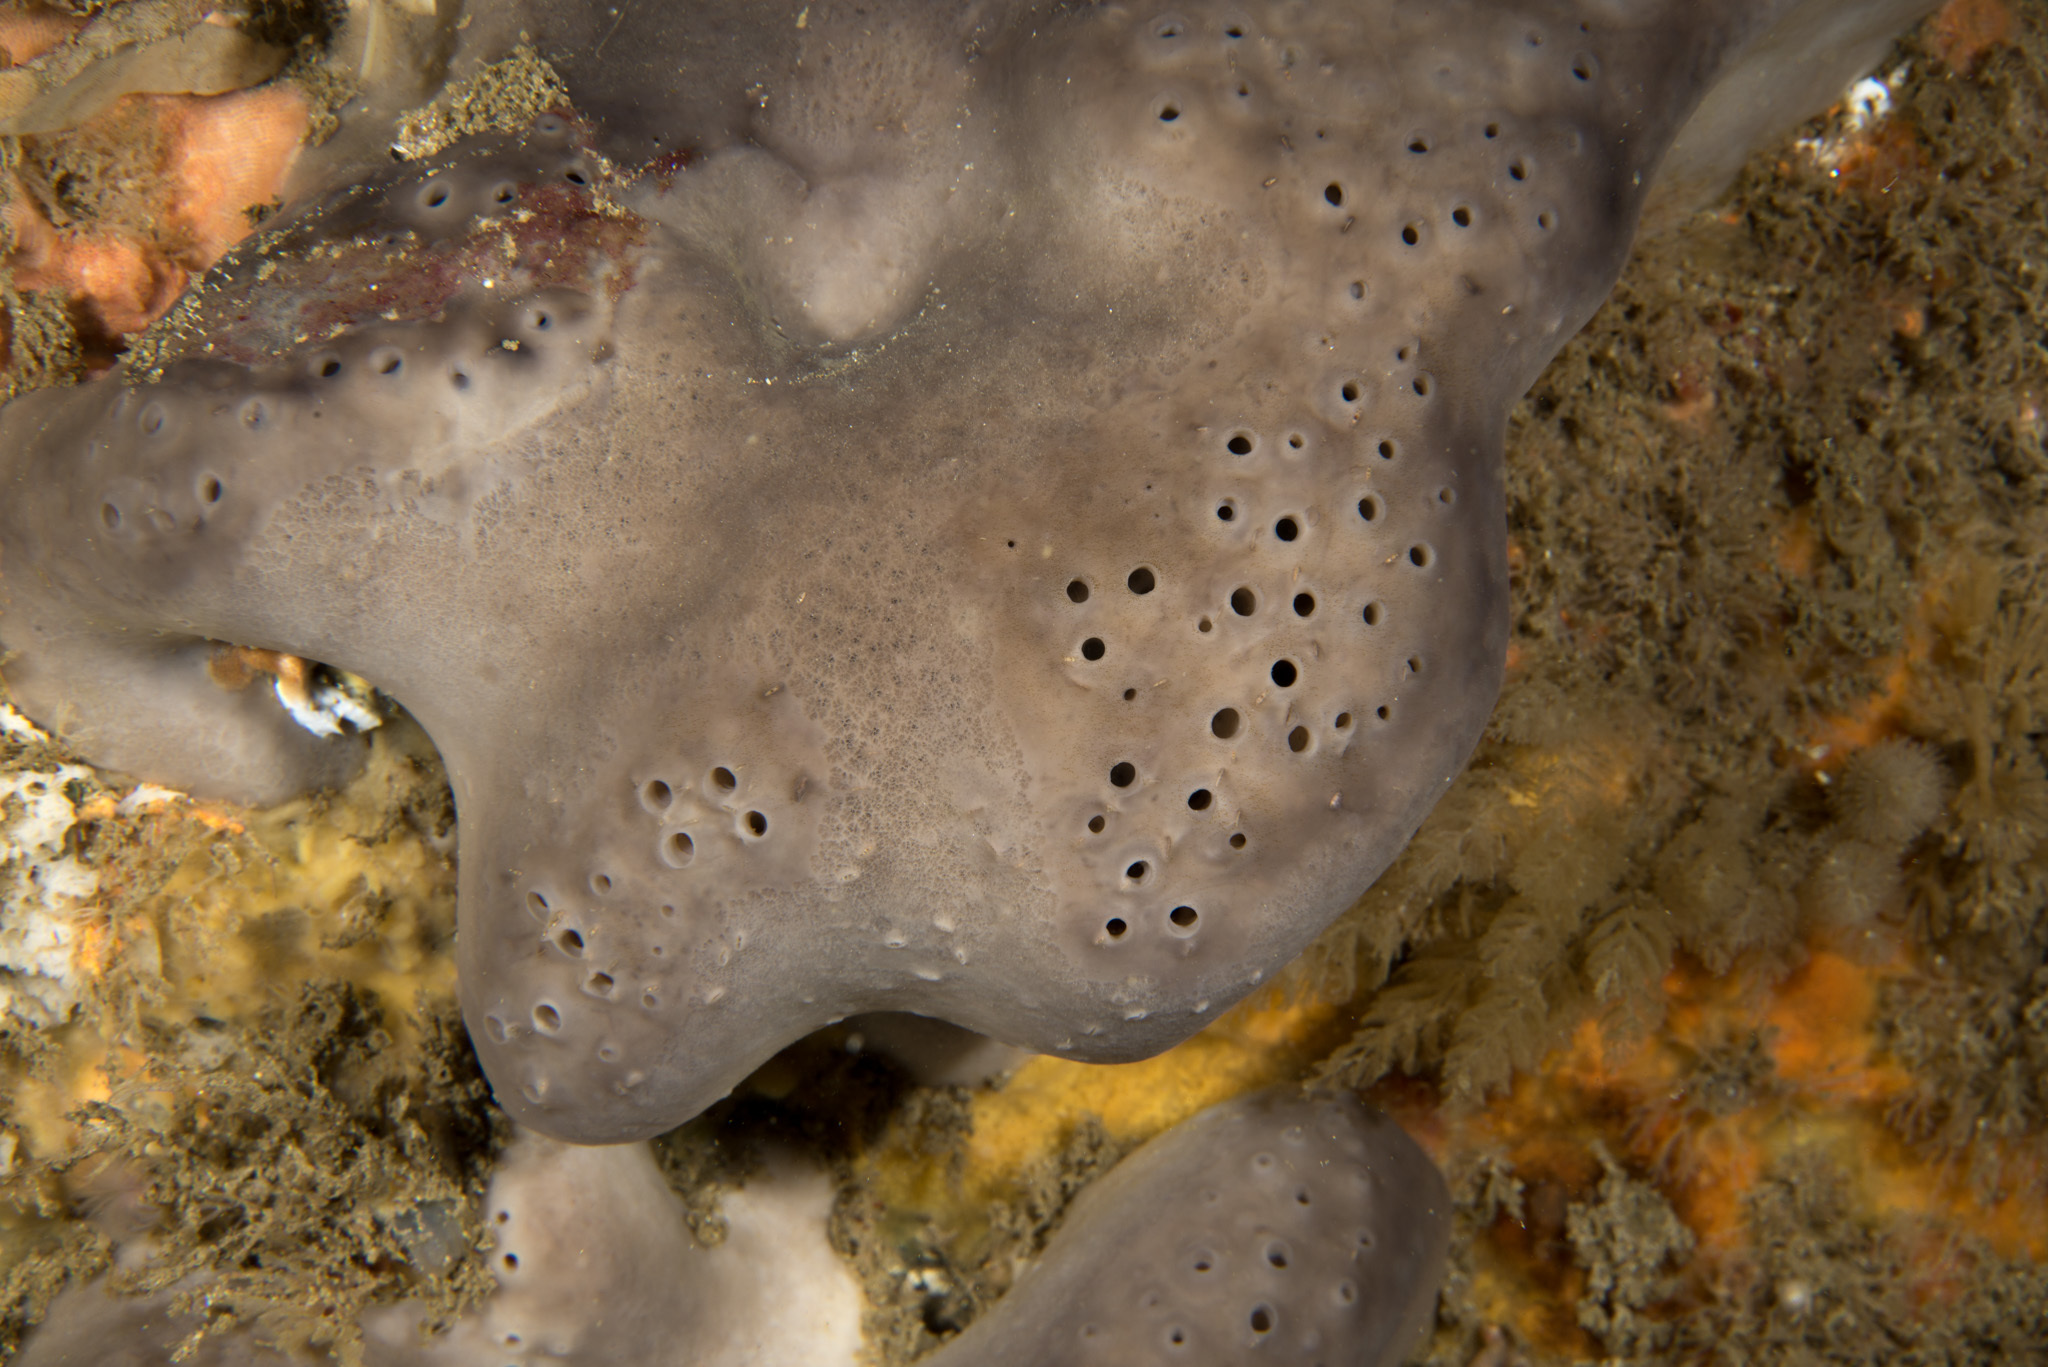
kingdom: Animalia
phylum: Porifera
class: Demospongiae
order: Tetractinellida
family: Geodiidae
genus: Pachymatisma
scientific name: Pachymatisma johnstonia
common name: Elephant ear sponge
